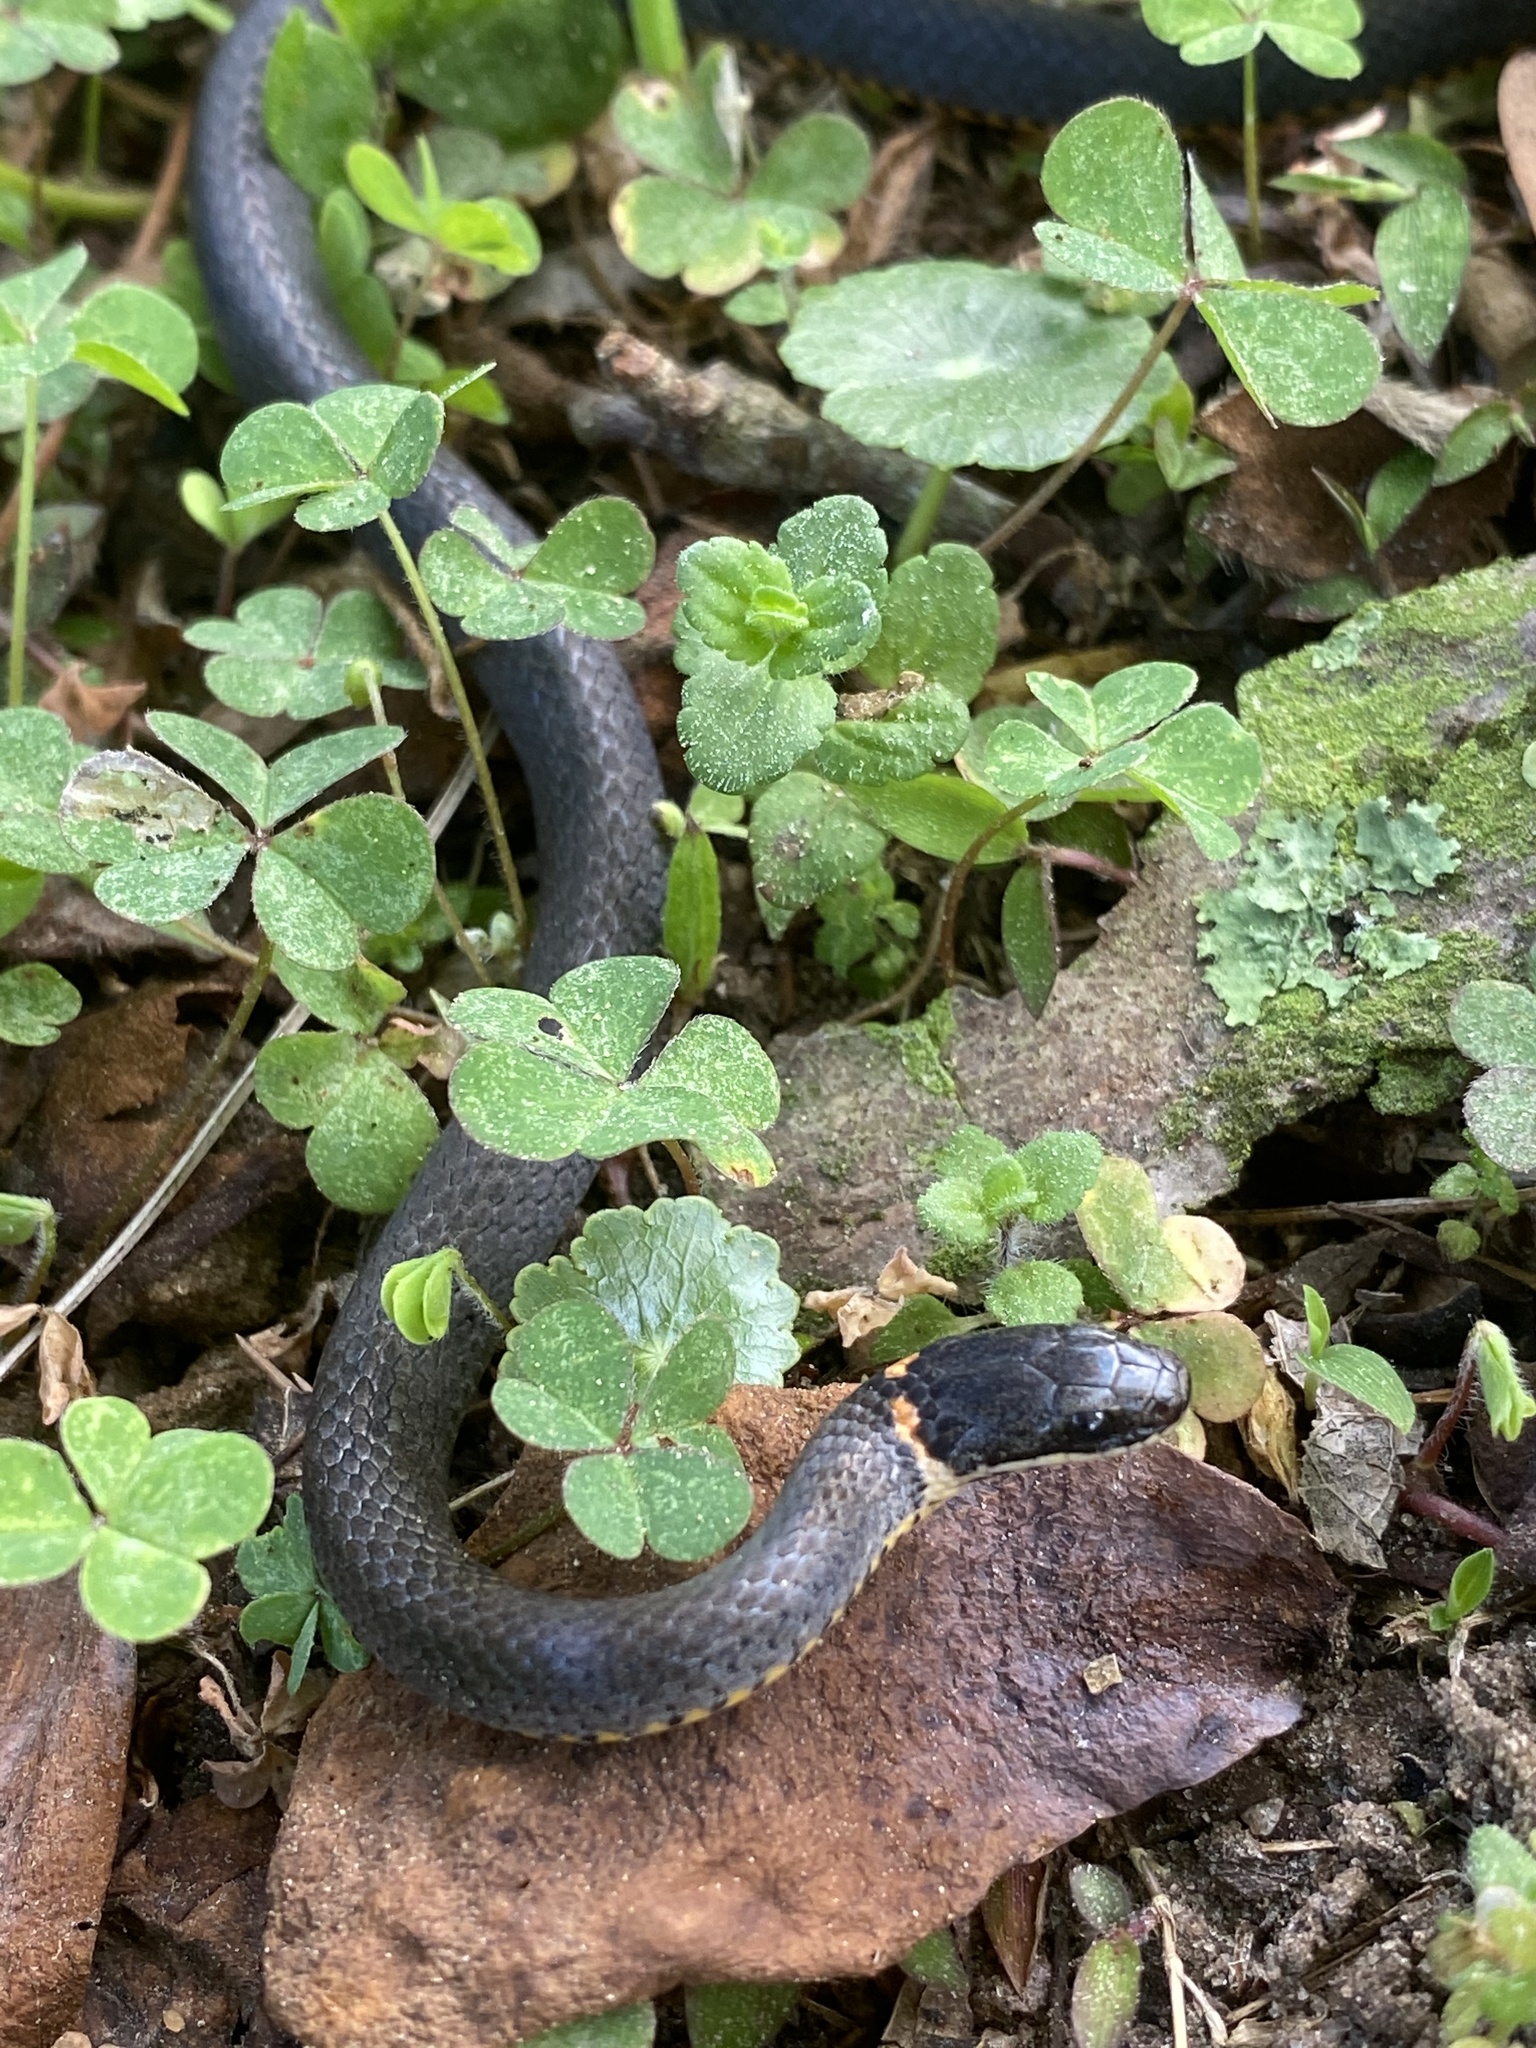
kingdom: Animalia
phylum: Chordata
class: Squamata
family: Colubridae
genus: Diadophis
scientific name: Diadophis punctatus
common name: Ringneck snake
